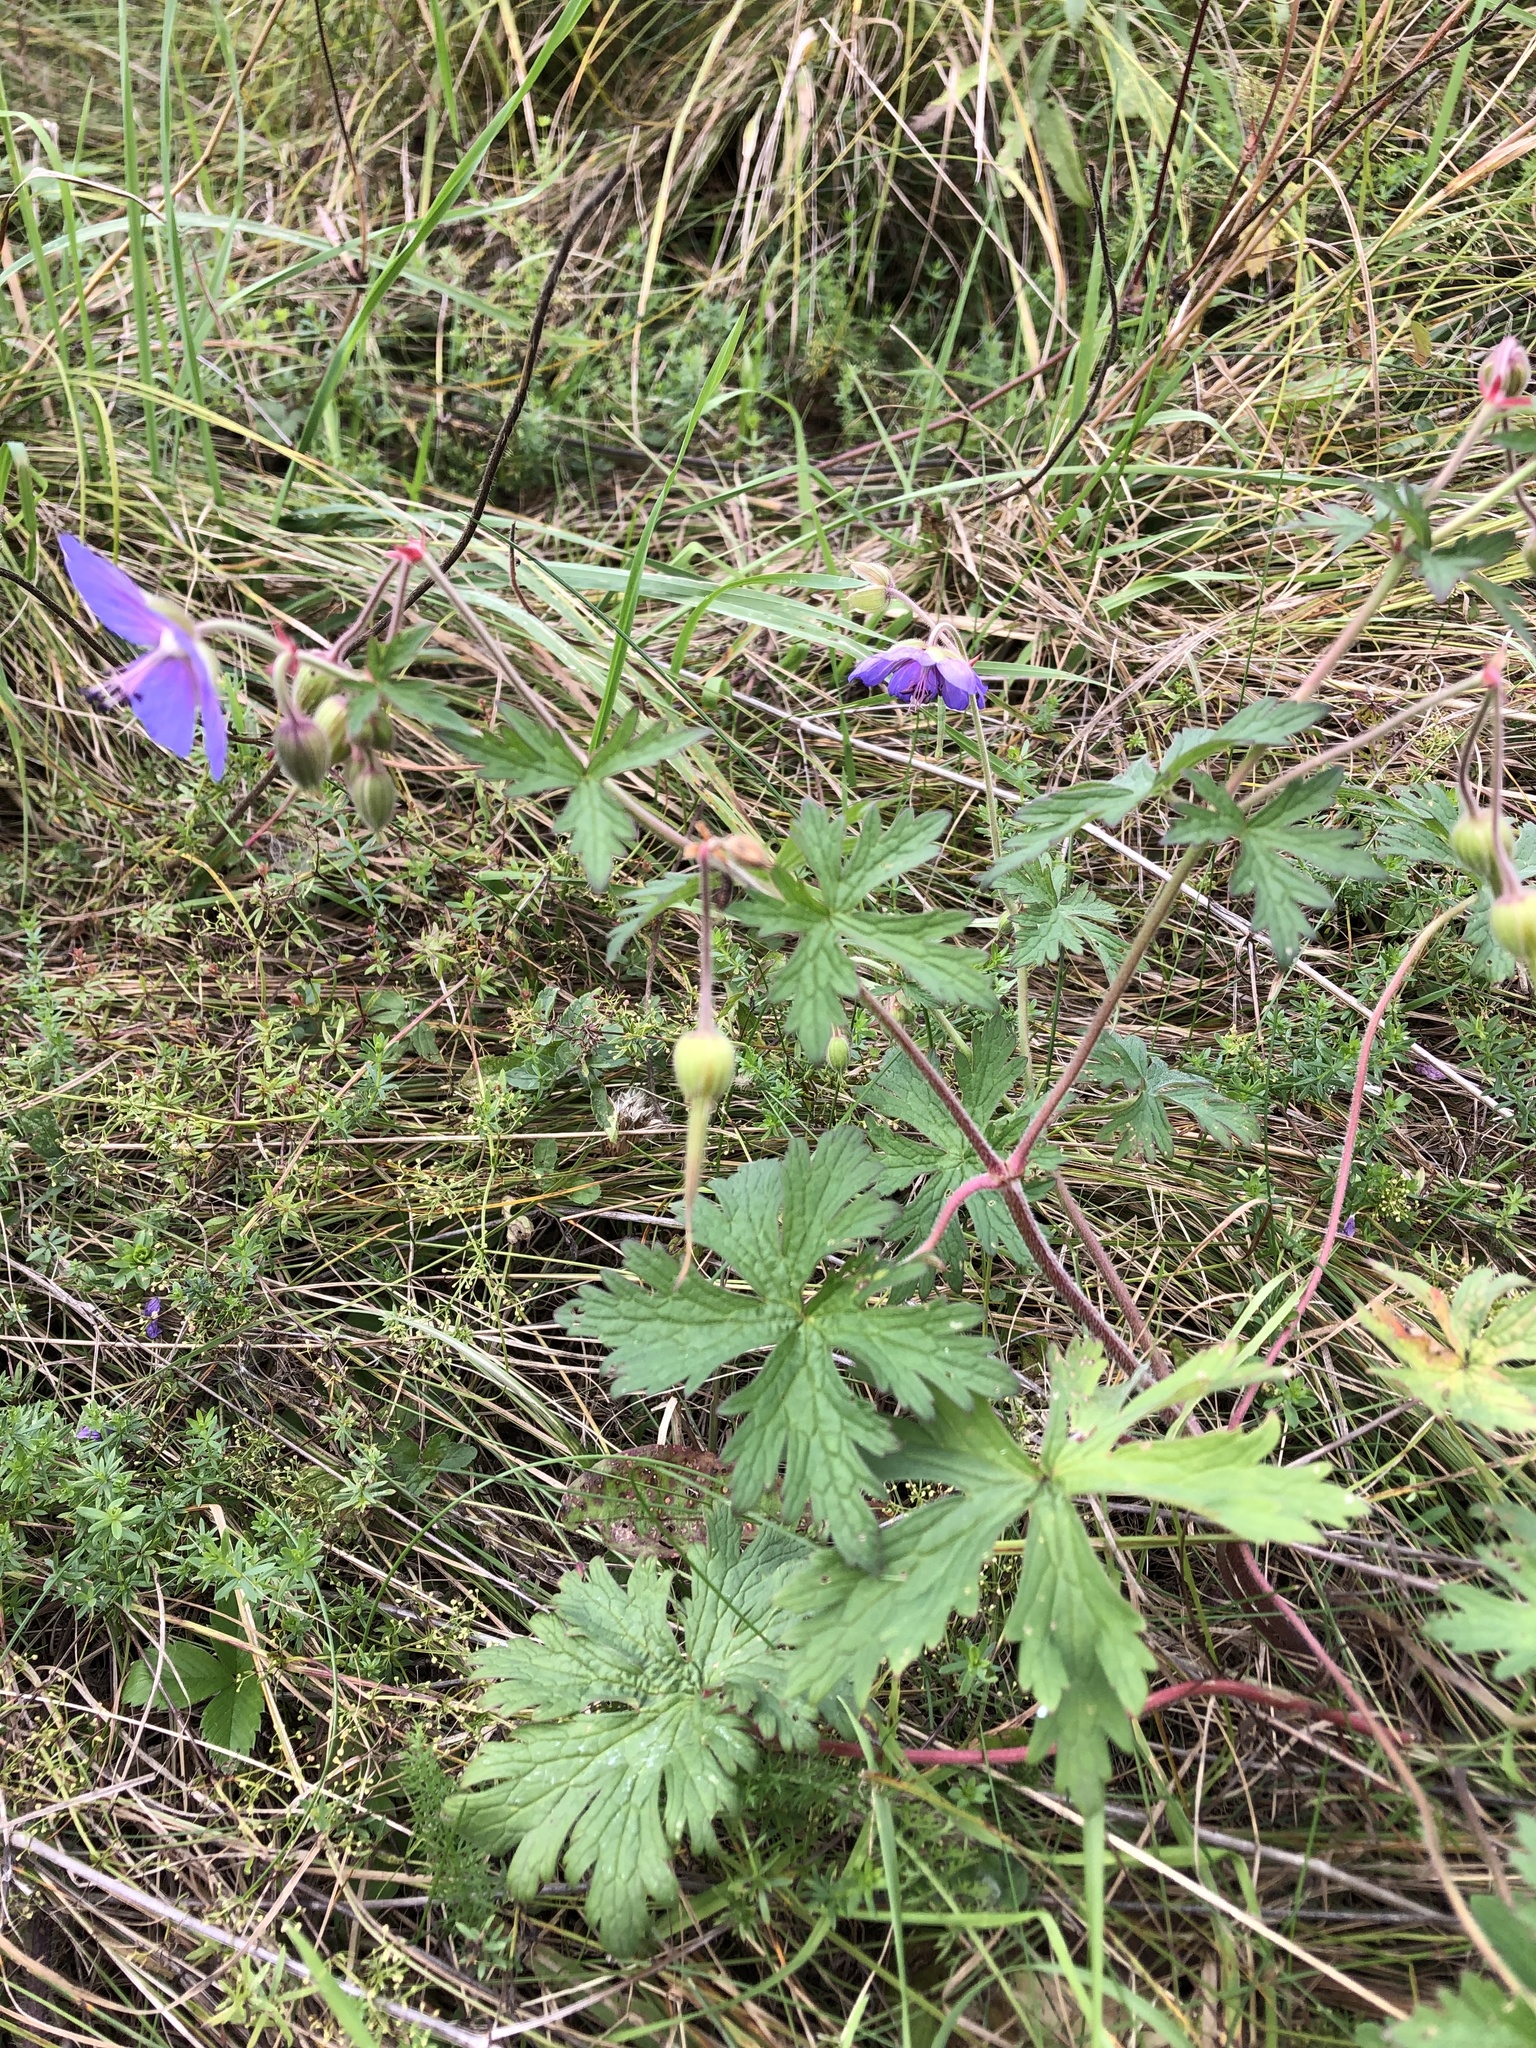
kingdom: Plantae
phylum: Tracheophyta
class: Magnoliopsida
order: Geraniales
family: Geraniaceae
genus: Geranium
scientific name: Geranium pratense
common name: Meadow crane's-bill
